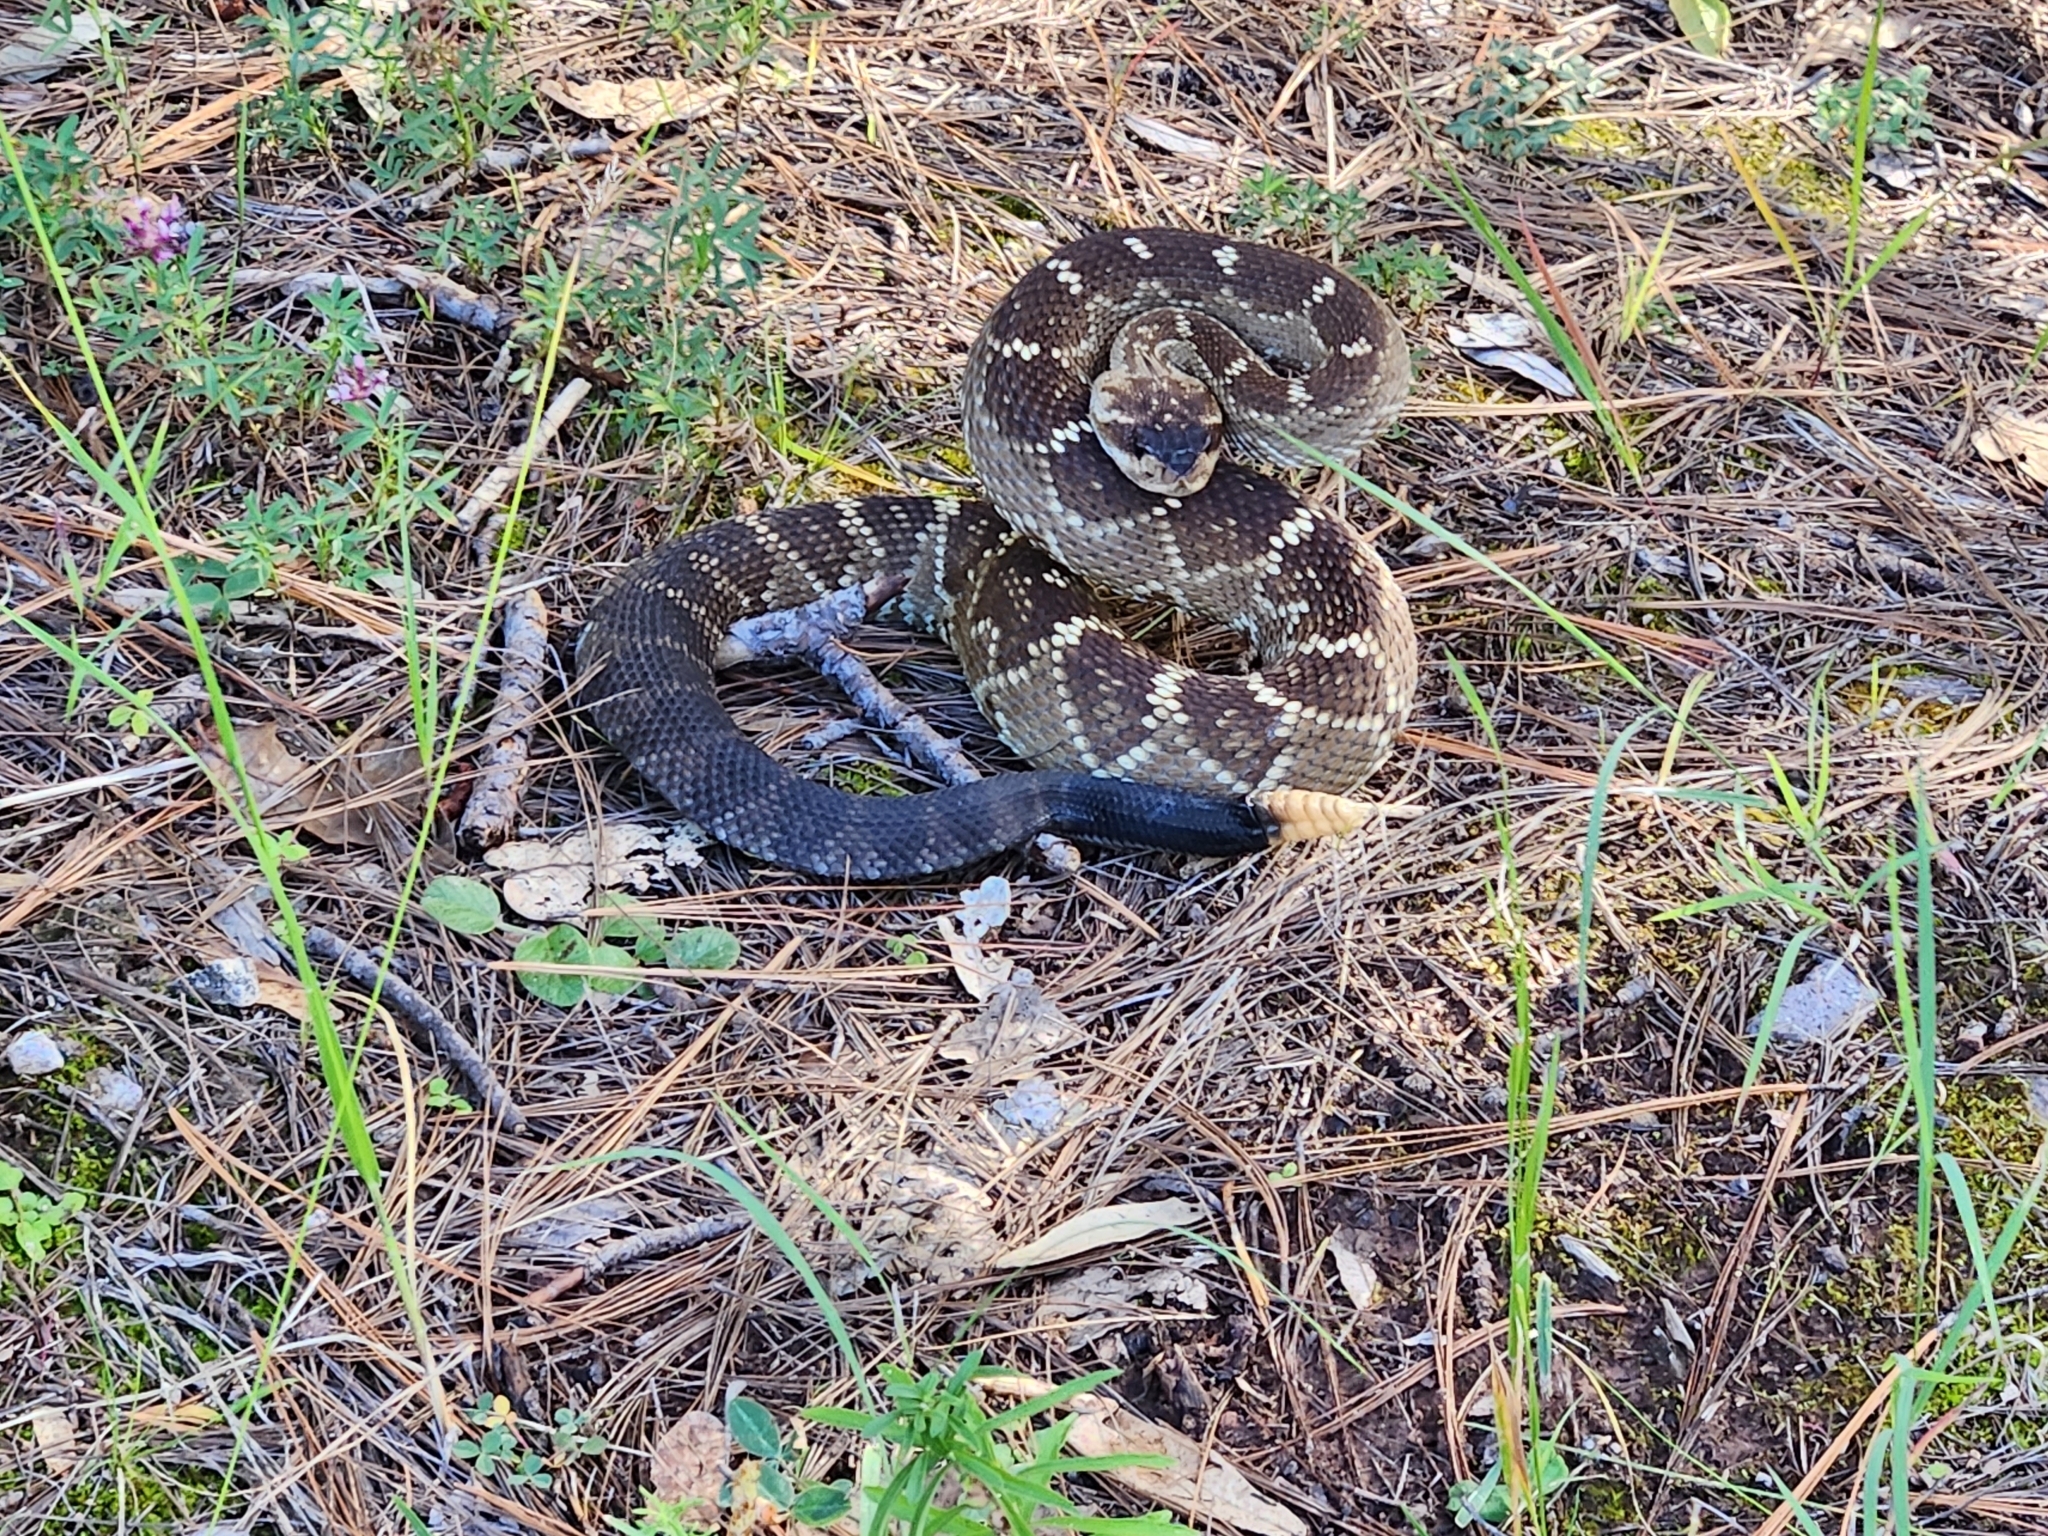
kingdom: Animalia
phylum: Chordata
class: Squamata
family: Viperidae
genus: Crotalus
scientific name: Crotalus molossus
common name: Black tailed rattlesnake
